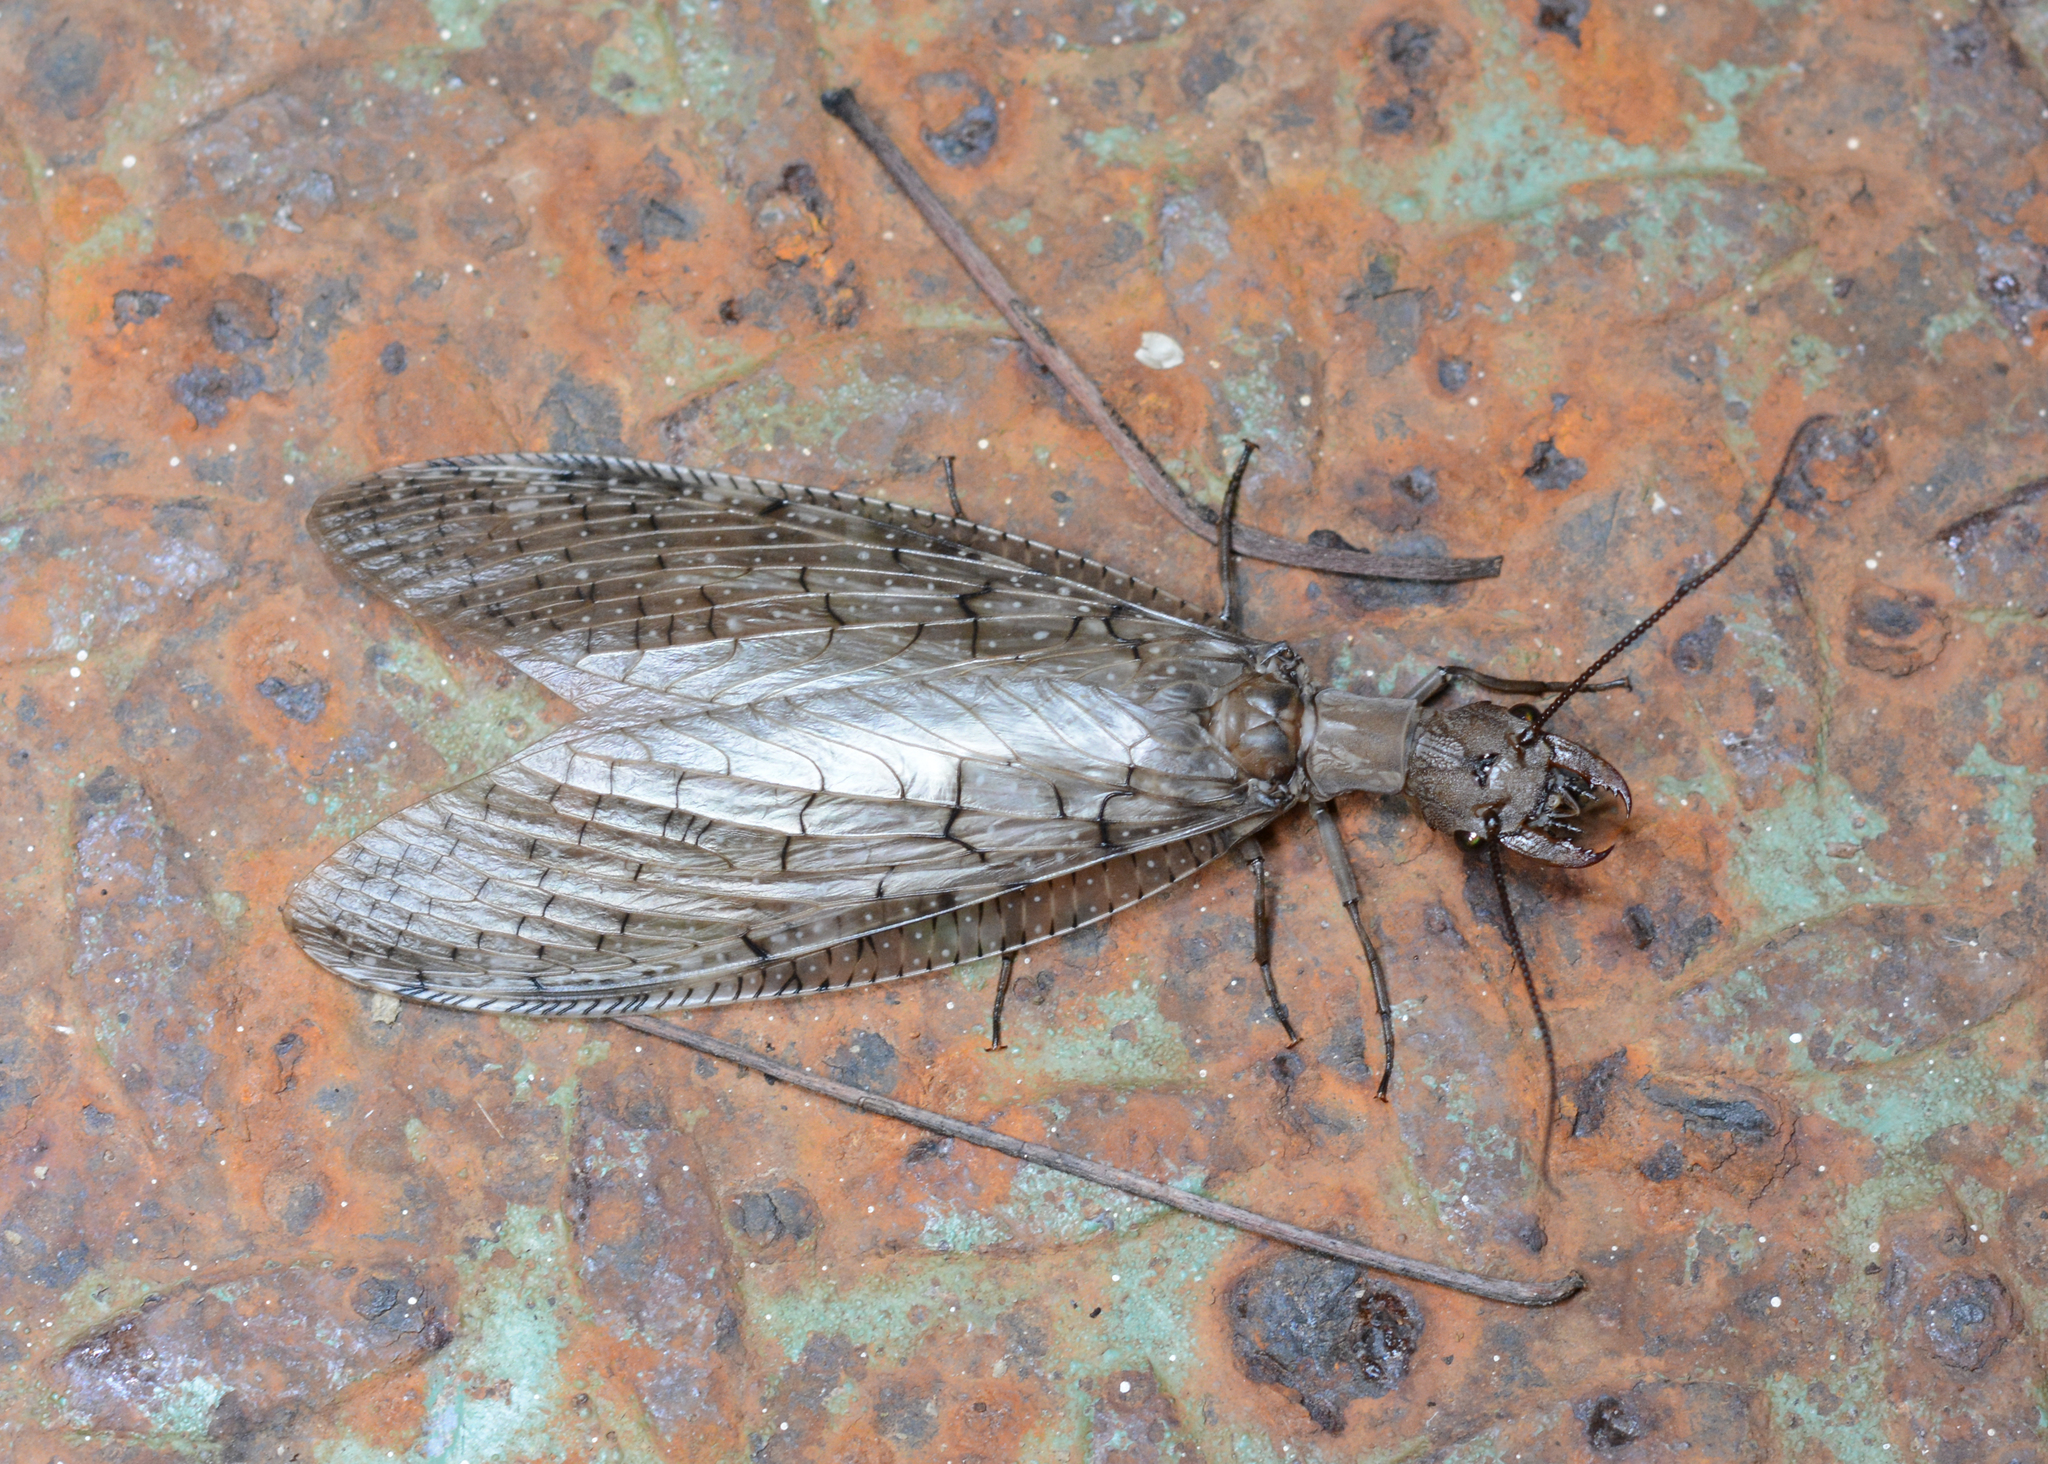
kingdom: Animalia
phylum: Arthropoda
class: Insecta
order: Megaloptera
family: Corydalidae
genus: Corydalus
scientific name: Corydalus cornutus
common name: Dobsonfly
